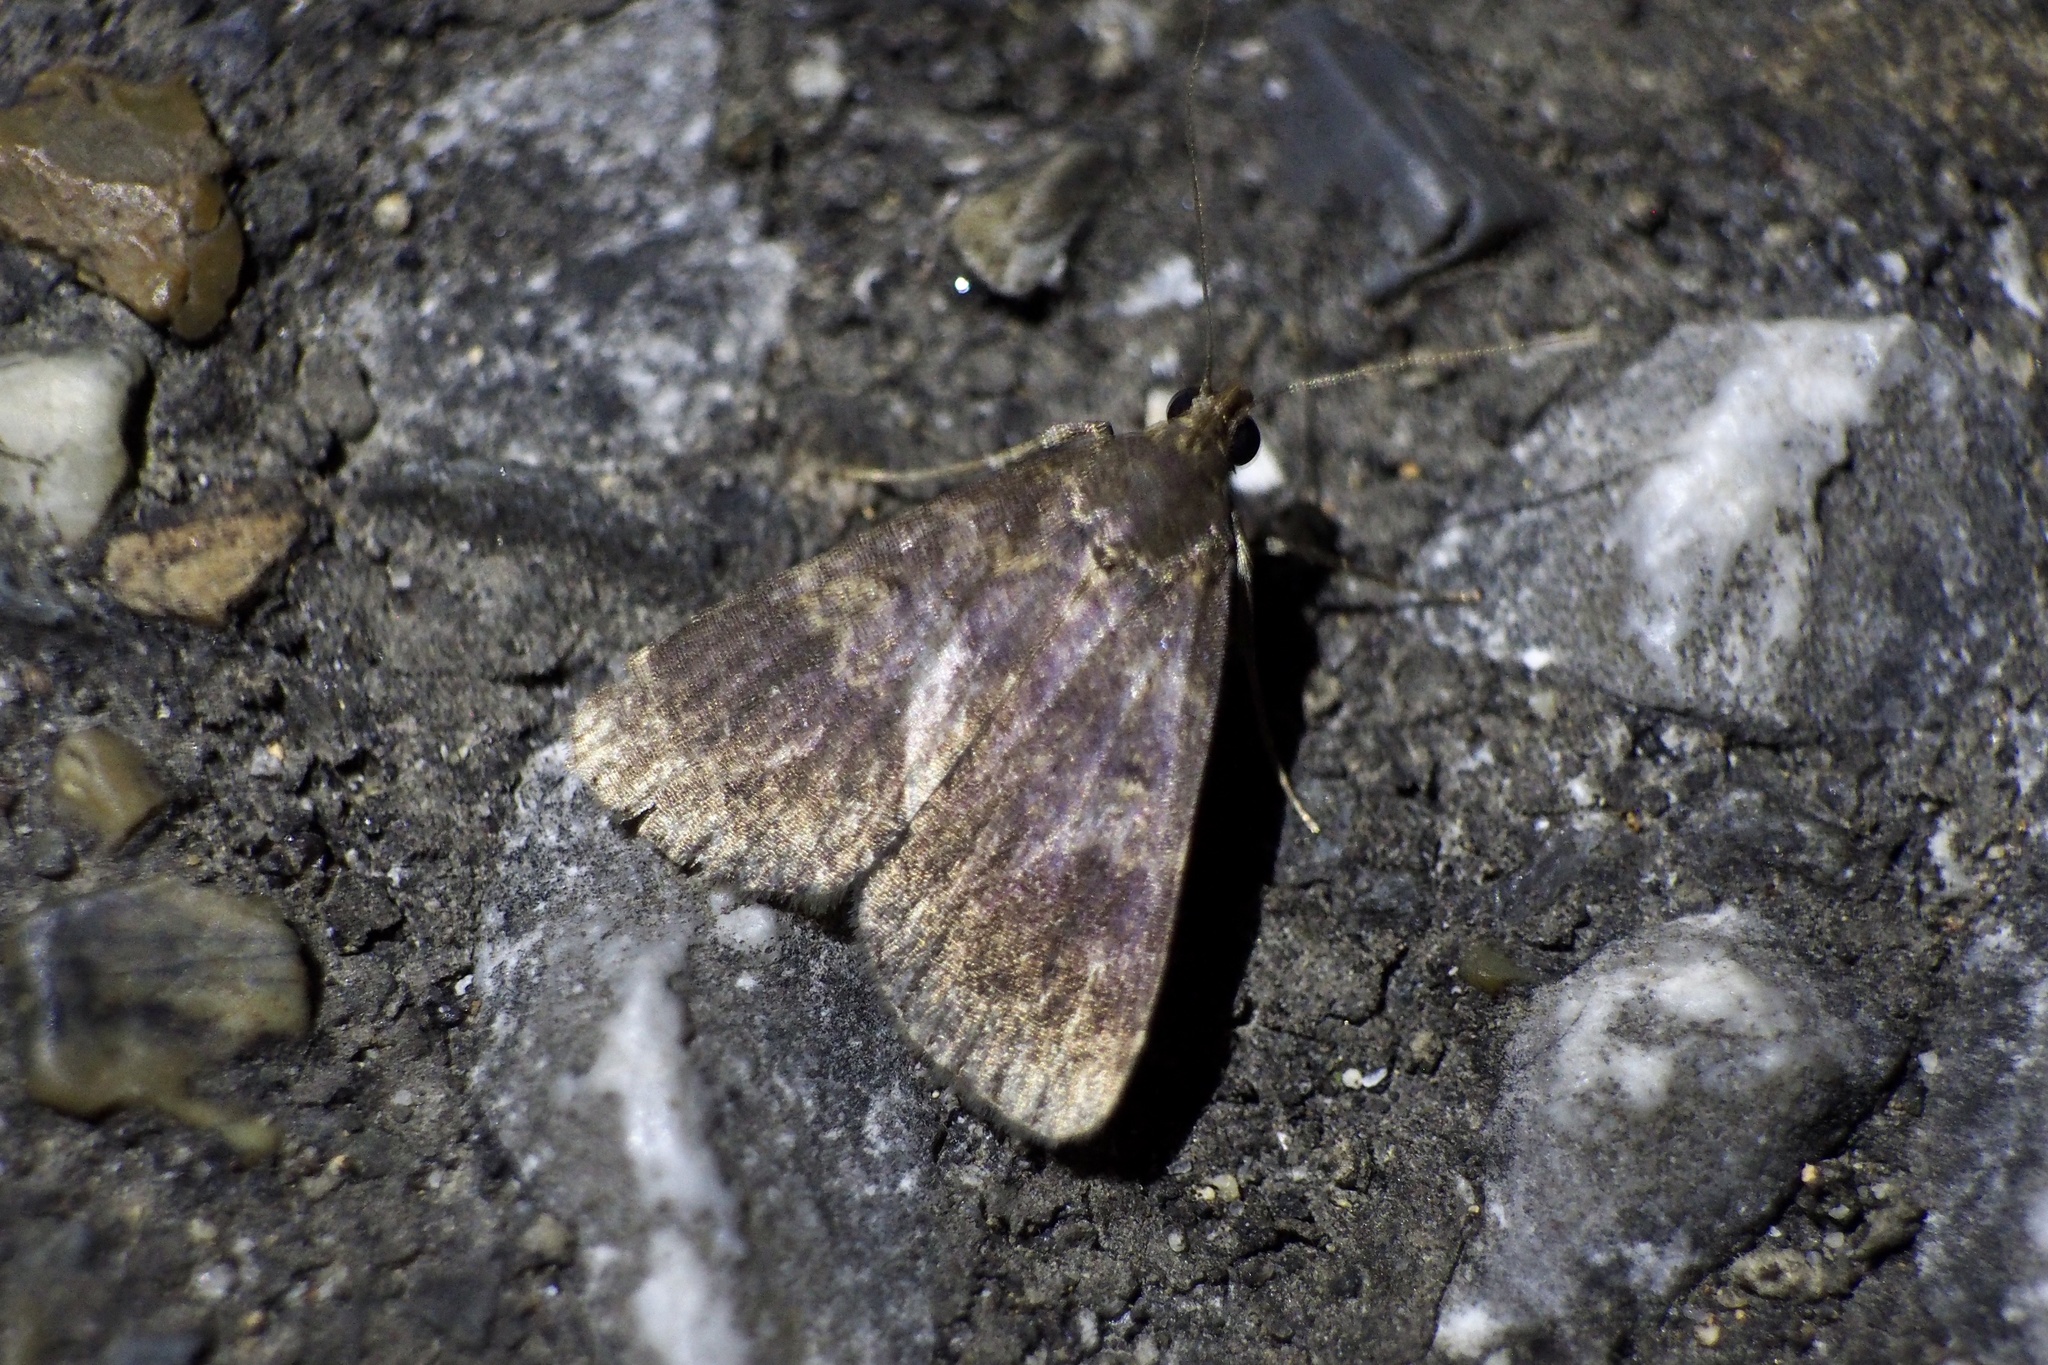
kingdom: Animalia
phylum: Arthropoda
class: Insecta
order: Lepidoptera
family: Erebidae
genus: Hydrillodes
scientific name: Hydrillodes lentalis
